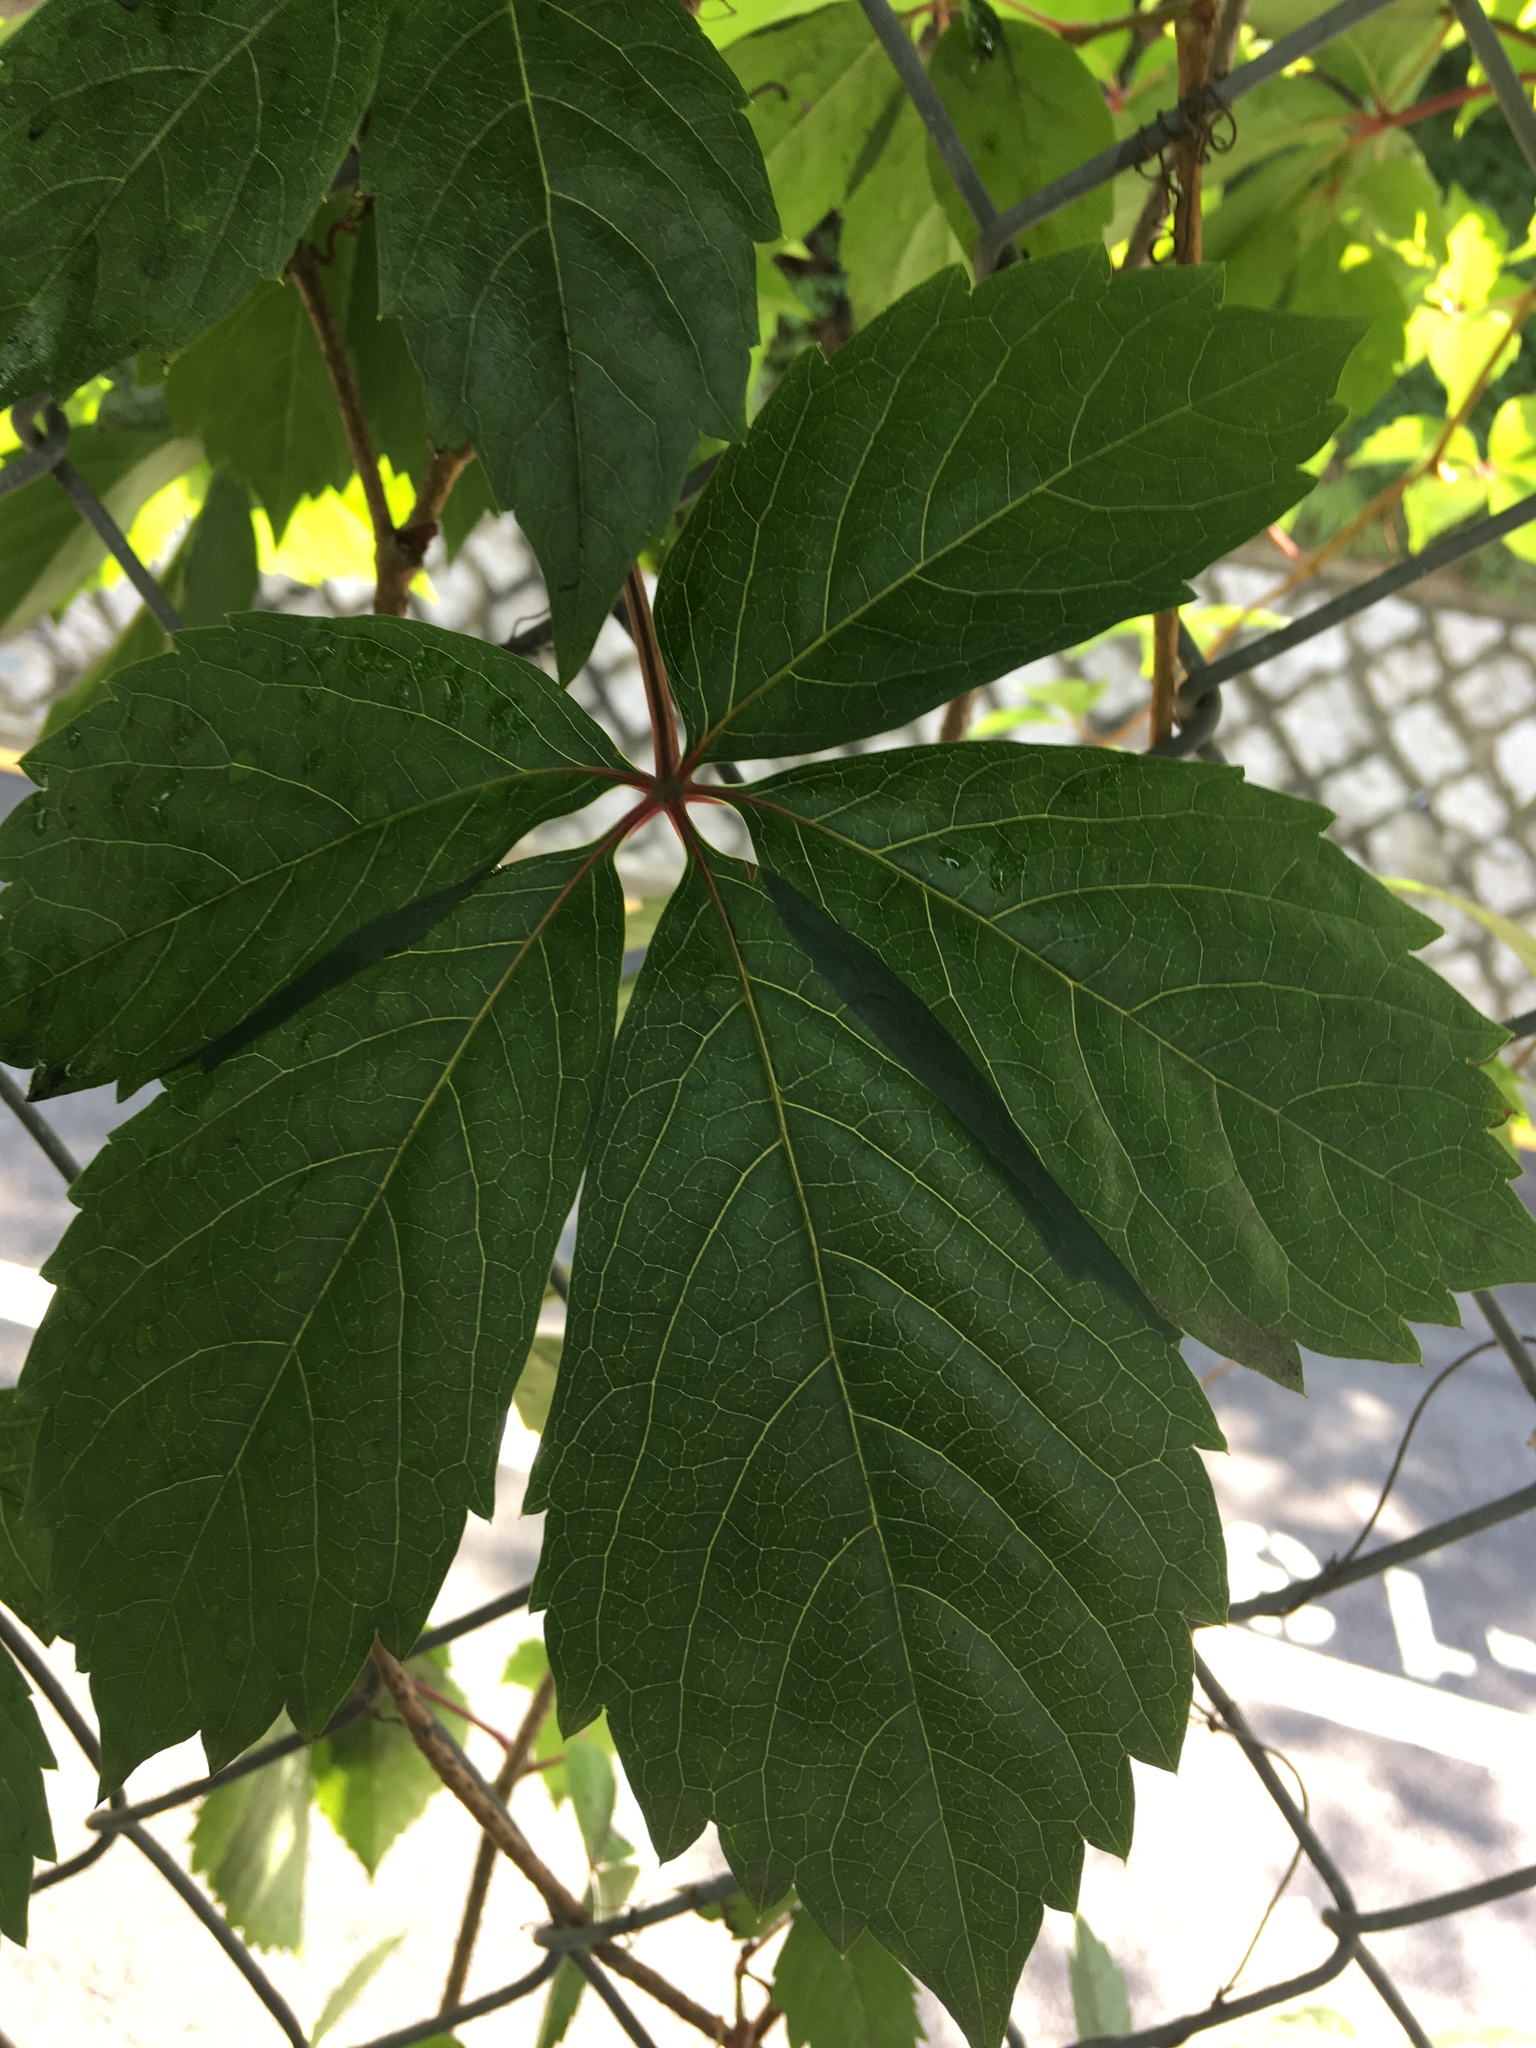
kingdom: Plantae
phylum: Tracheophyta
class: Magnoliopsida
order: Vitales
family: Vitaceae
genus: Parthenocissus
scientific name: Parthenocissus quinquefolia
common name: Virginia-creeper
